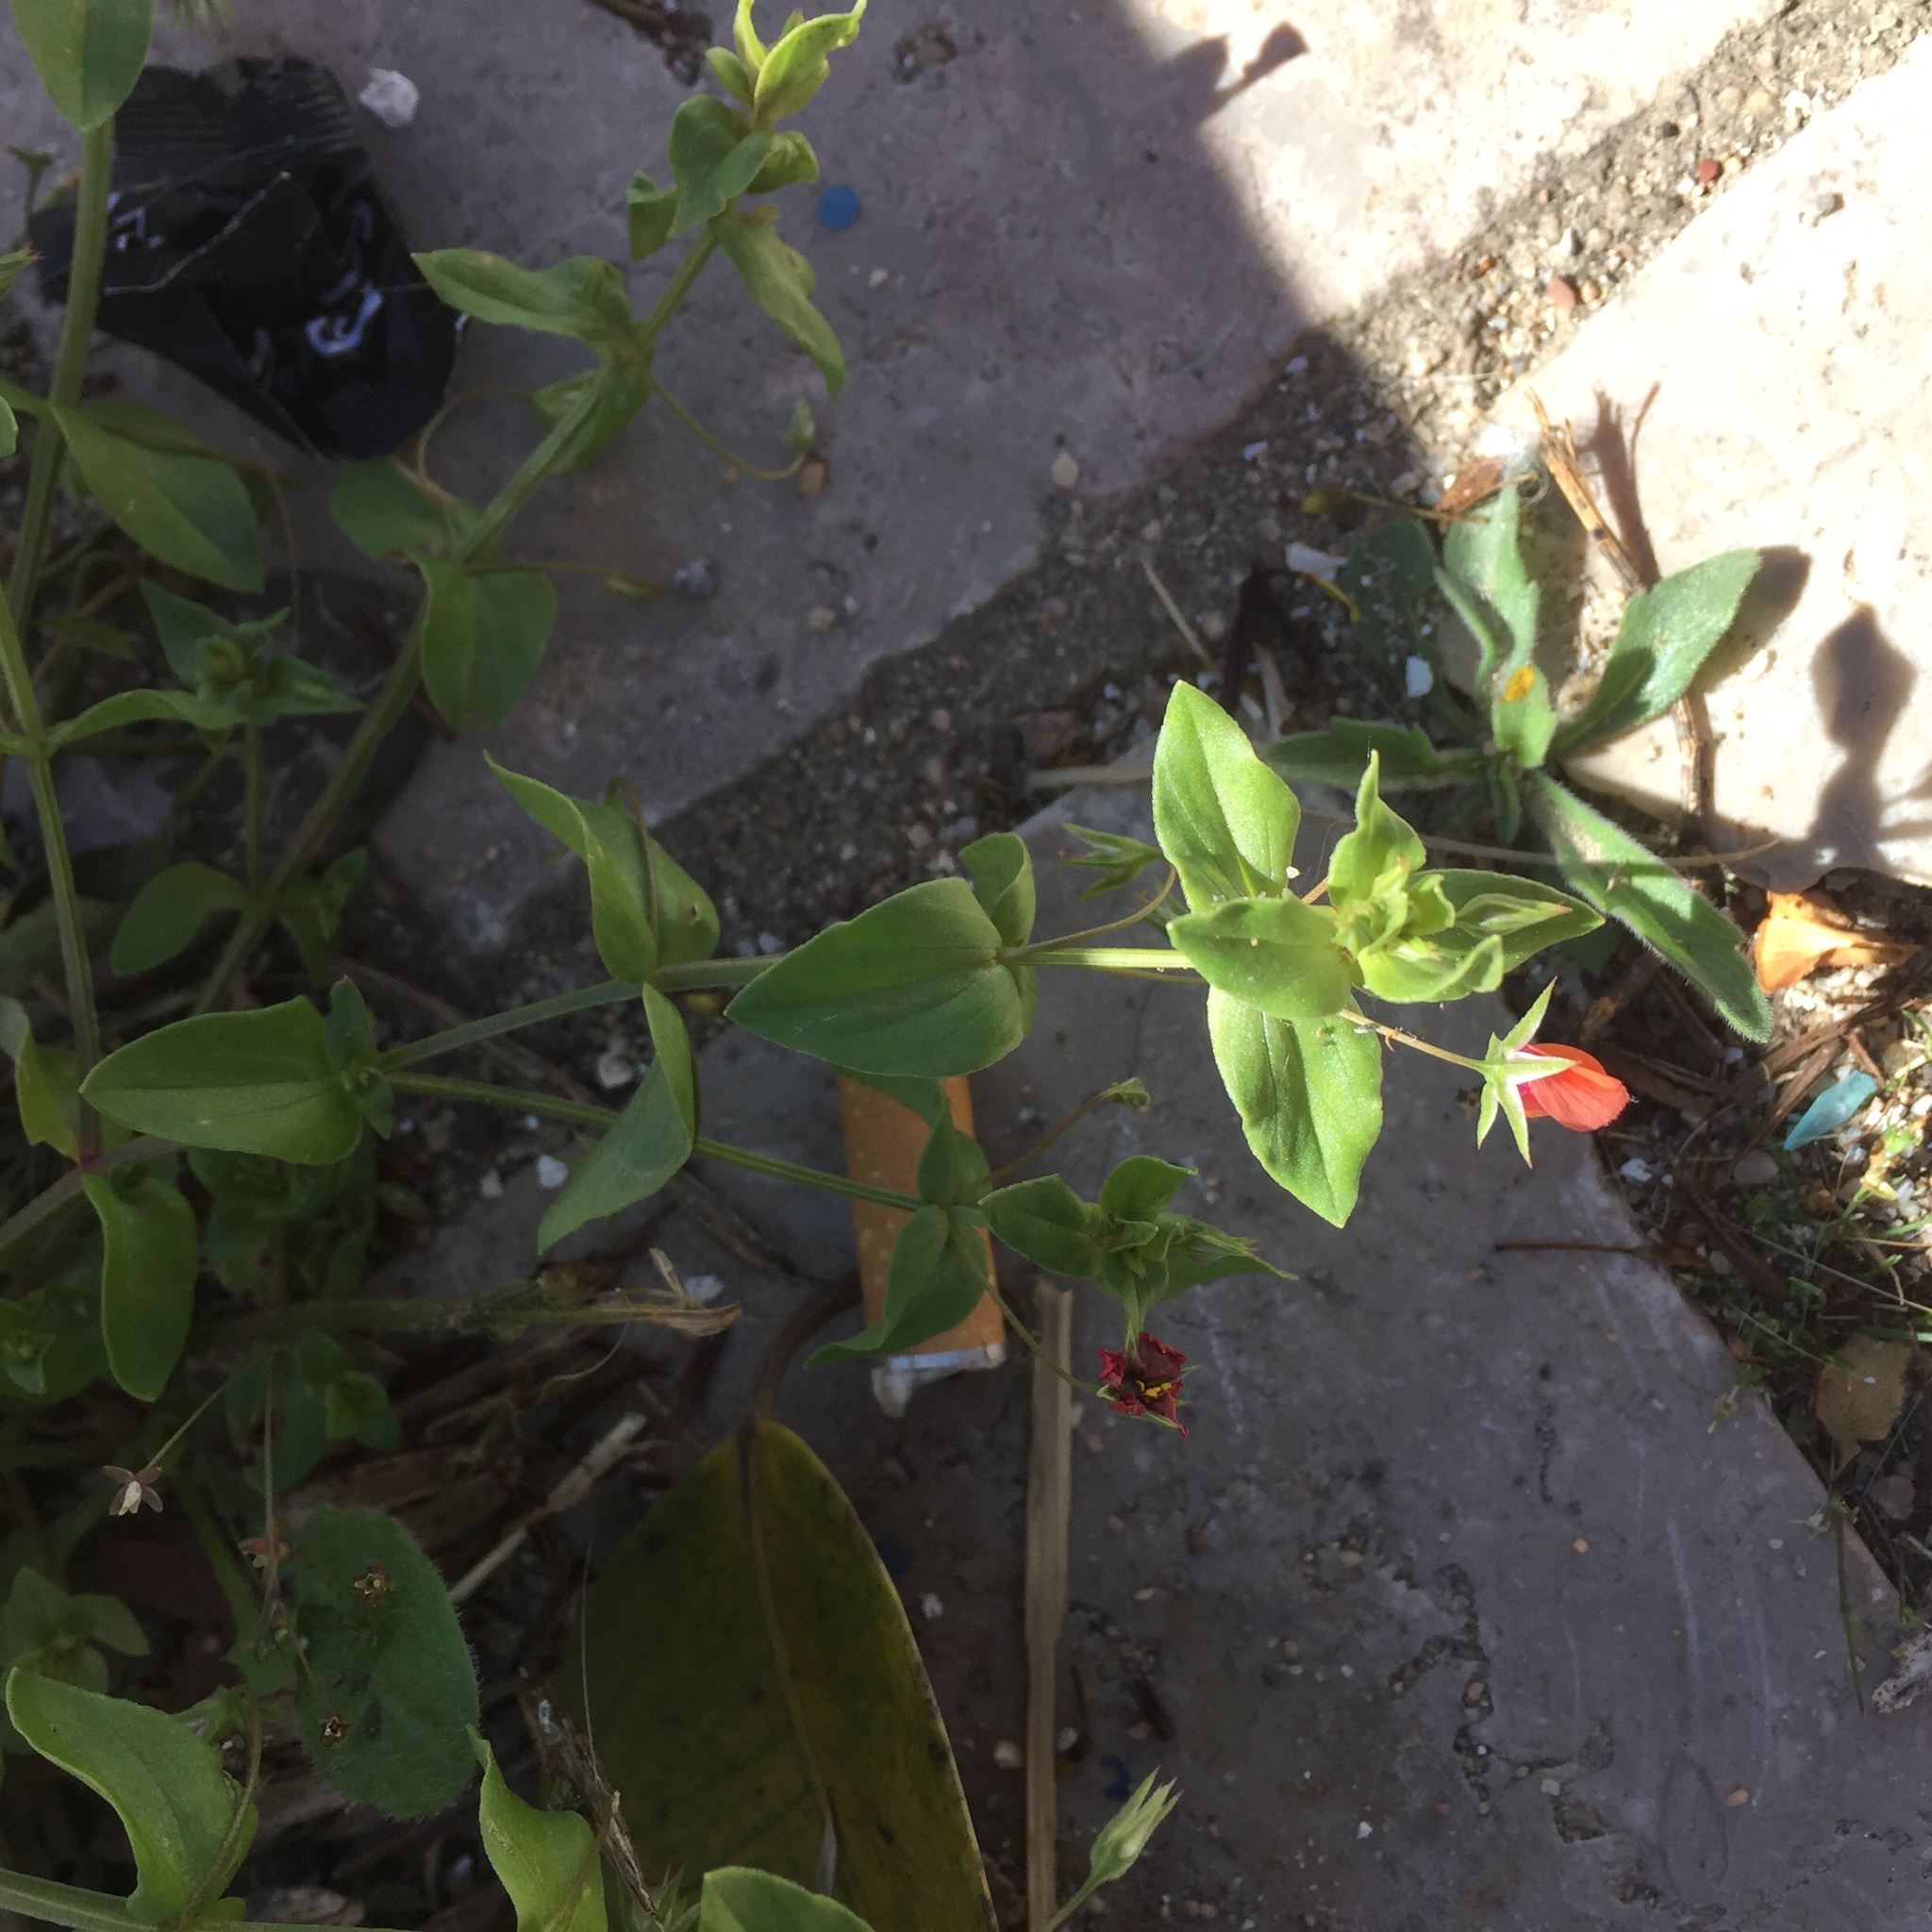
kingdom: Plantae
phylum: Tracheophyta
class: Magnoliopsida
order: Ericales
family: Primulaceae
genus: Lysimachia
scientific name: Lysimachia arvensis
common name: Scarlet pimpernel
